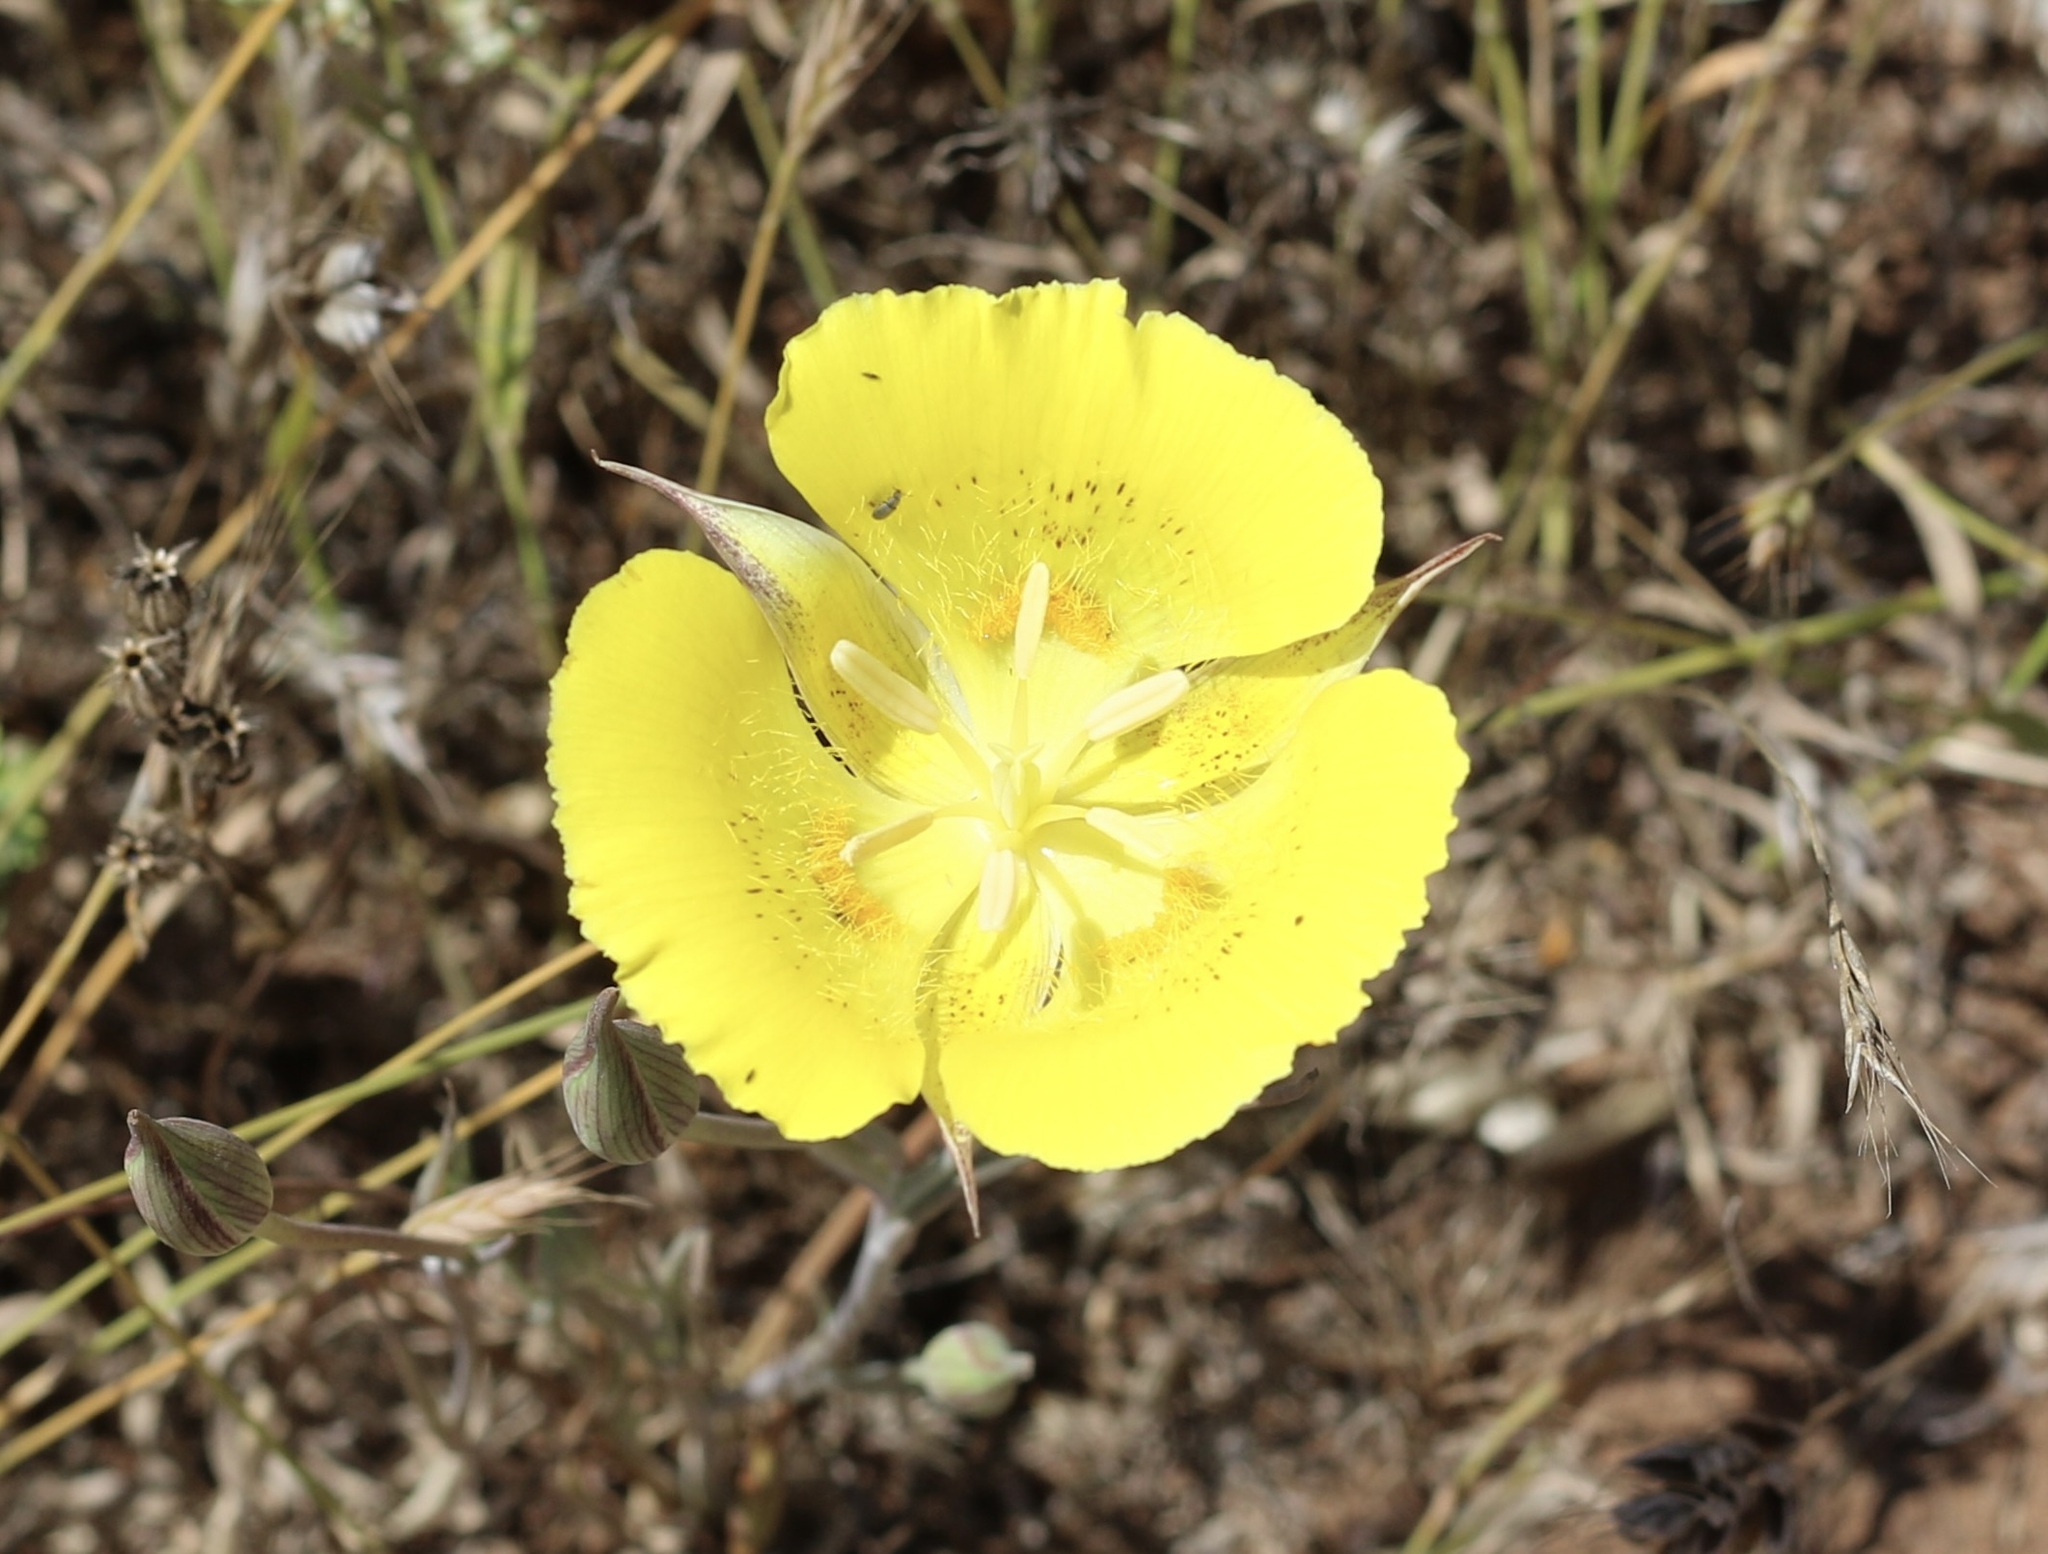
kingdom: Plantae
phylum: Tracheophyta
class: Liliopsida
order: Liliales
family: Liliaceae
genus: Calochortus
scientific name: Calochortus luteus
